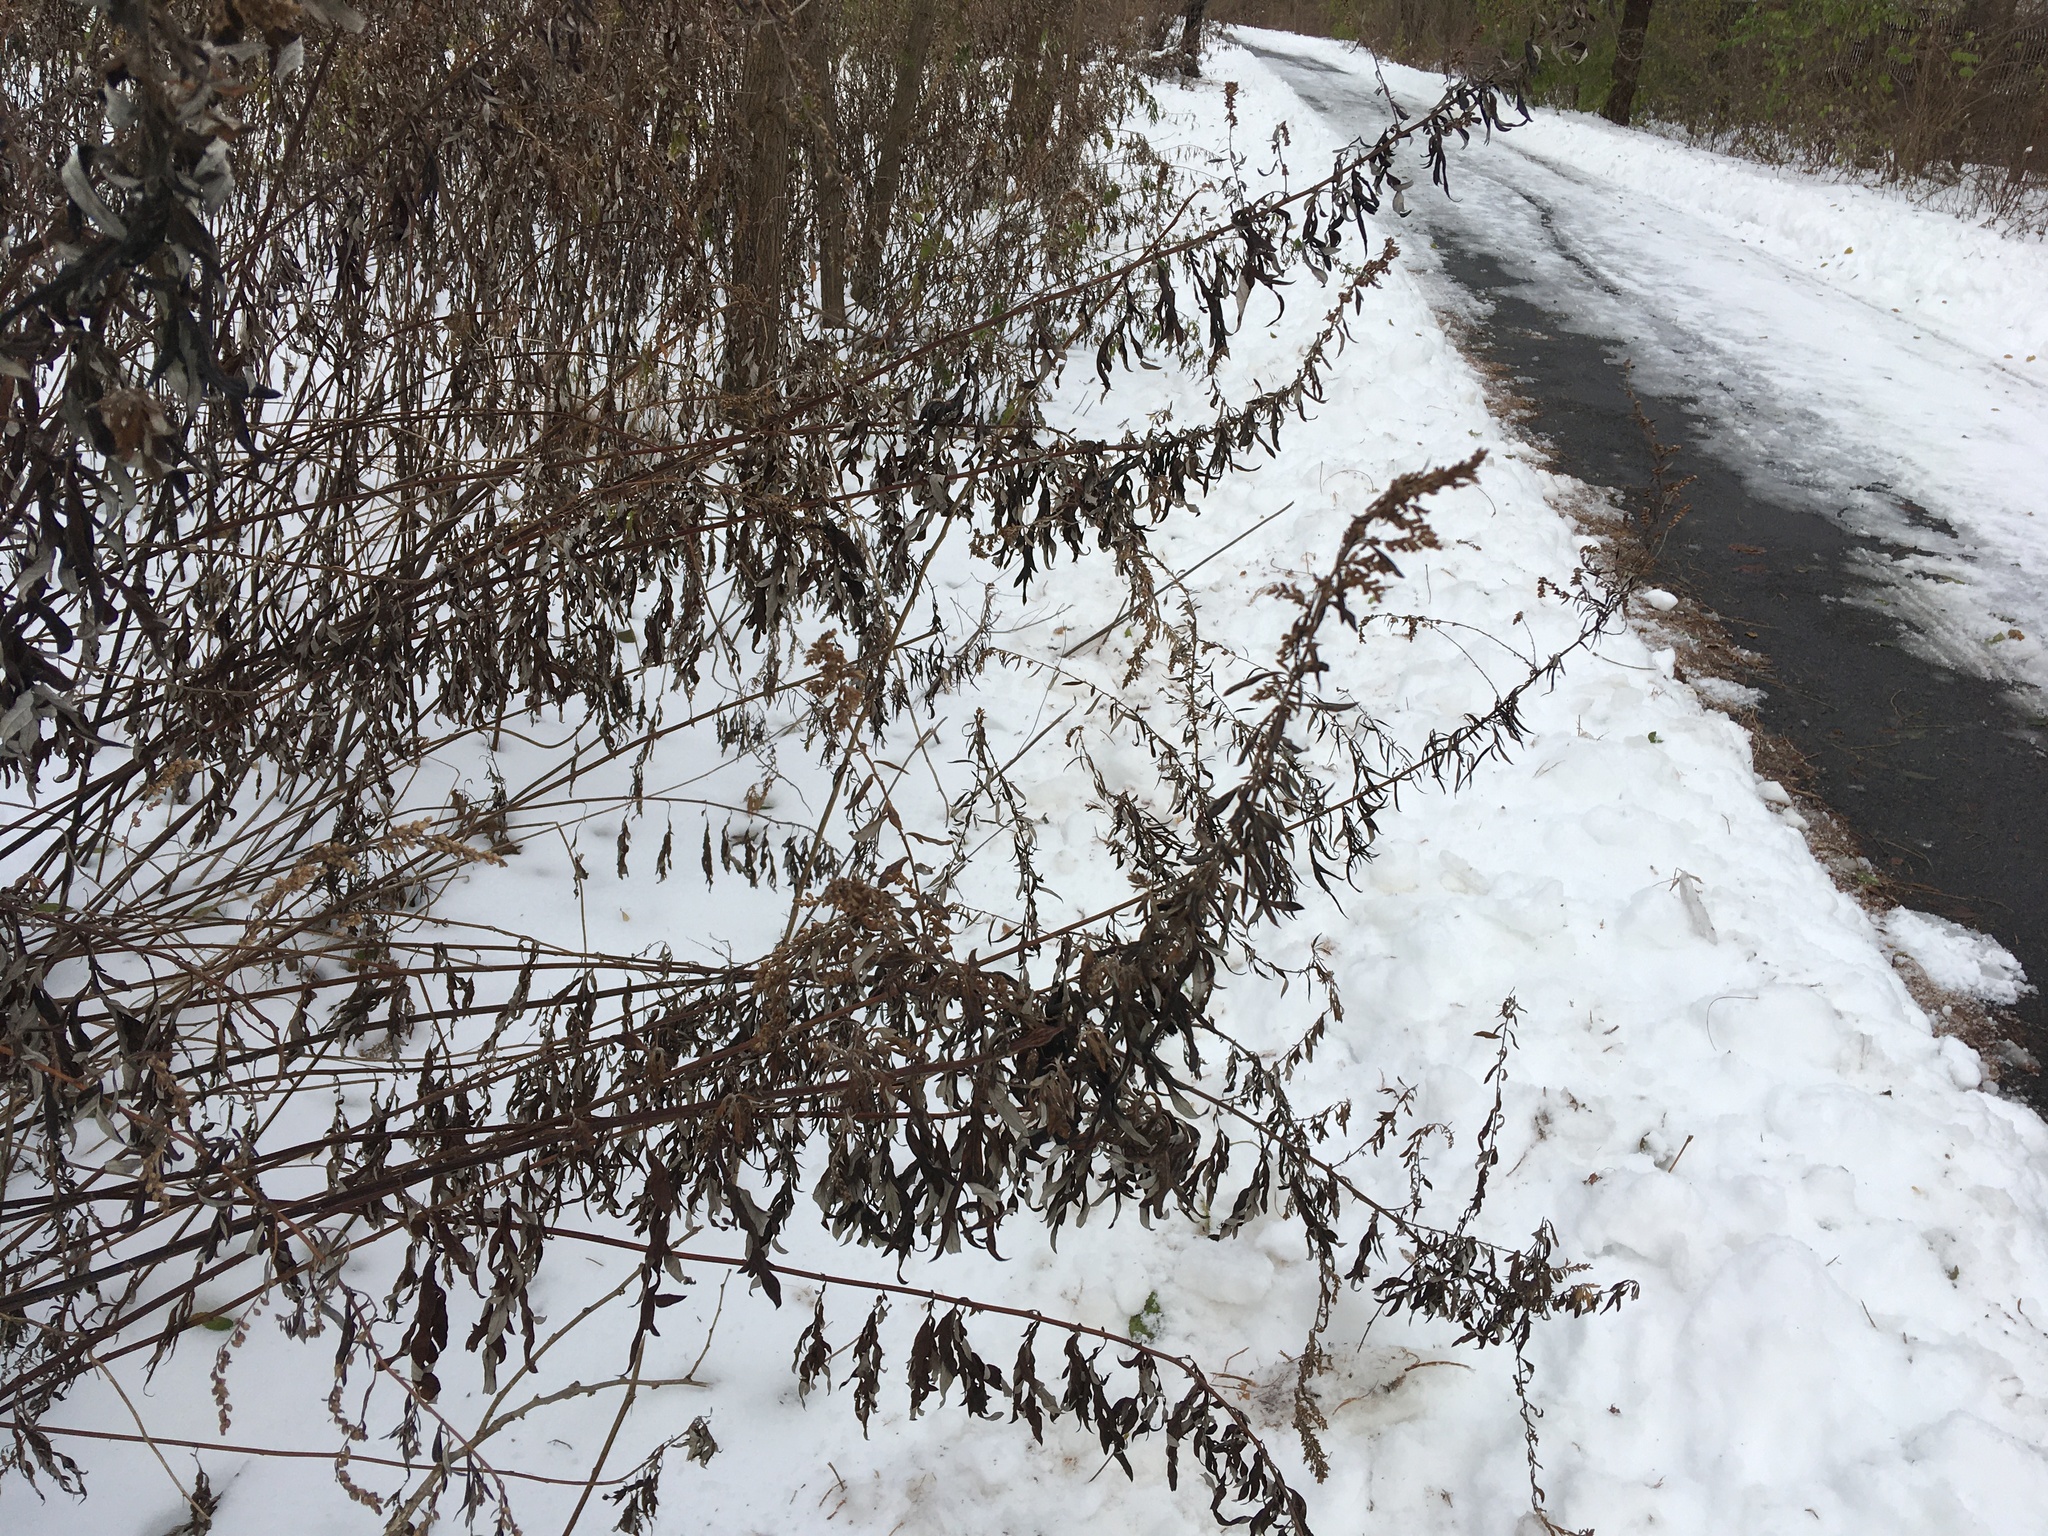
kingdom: Plantae
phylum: Tracheophyta
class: Magnoliopsida
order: Asterales
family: Asteraceae
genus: Artemisia
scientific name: Artemisia vulgaris
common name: Mugwort
